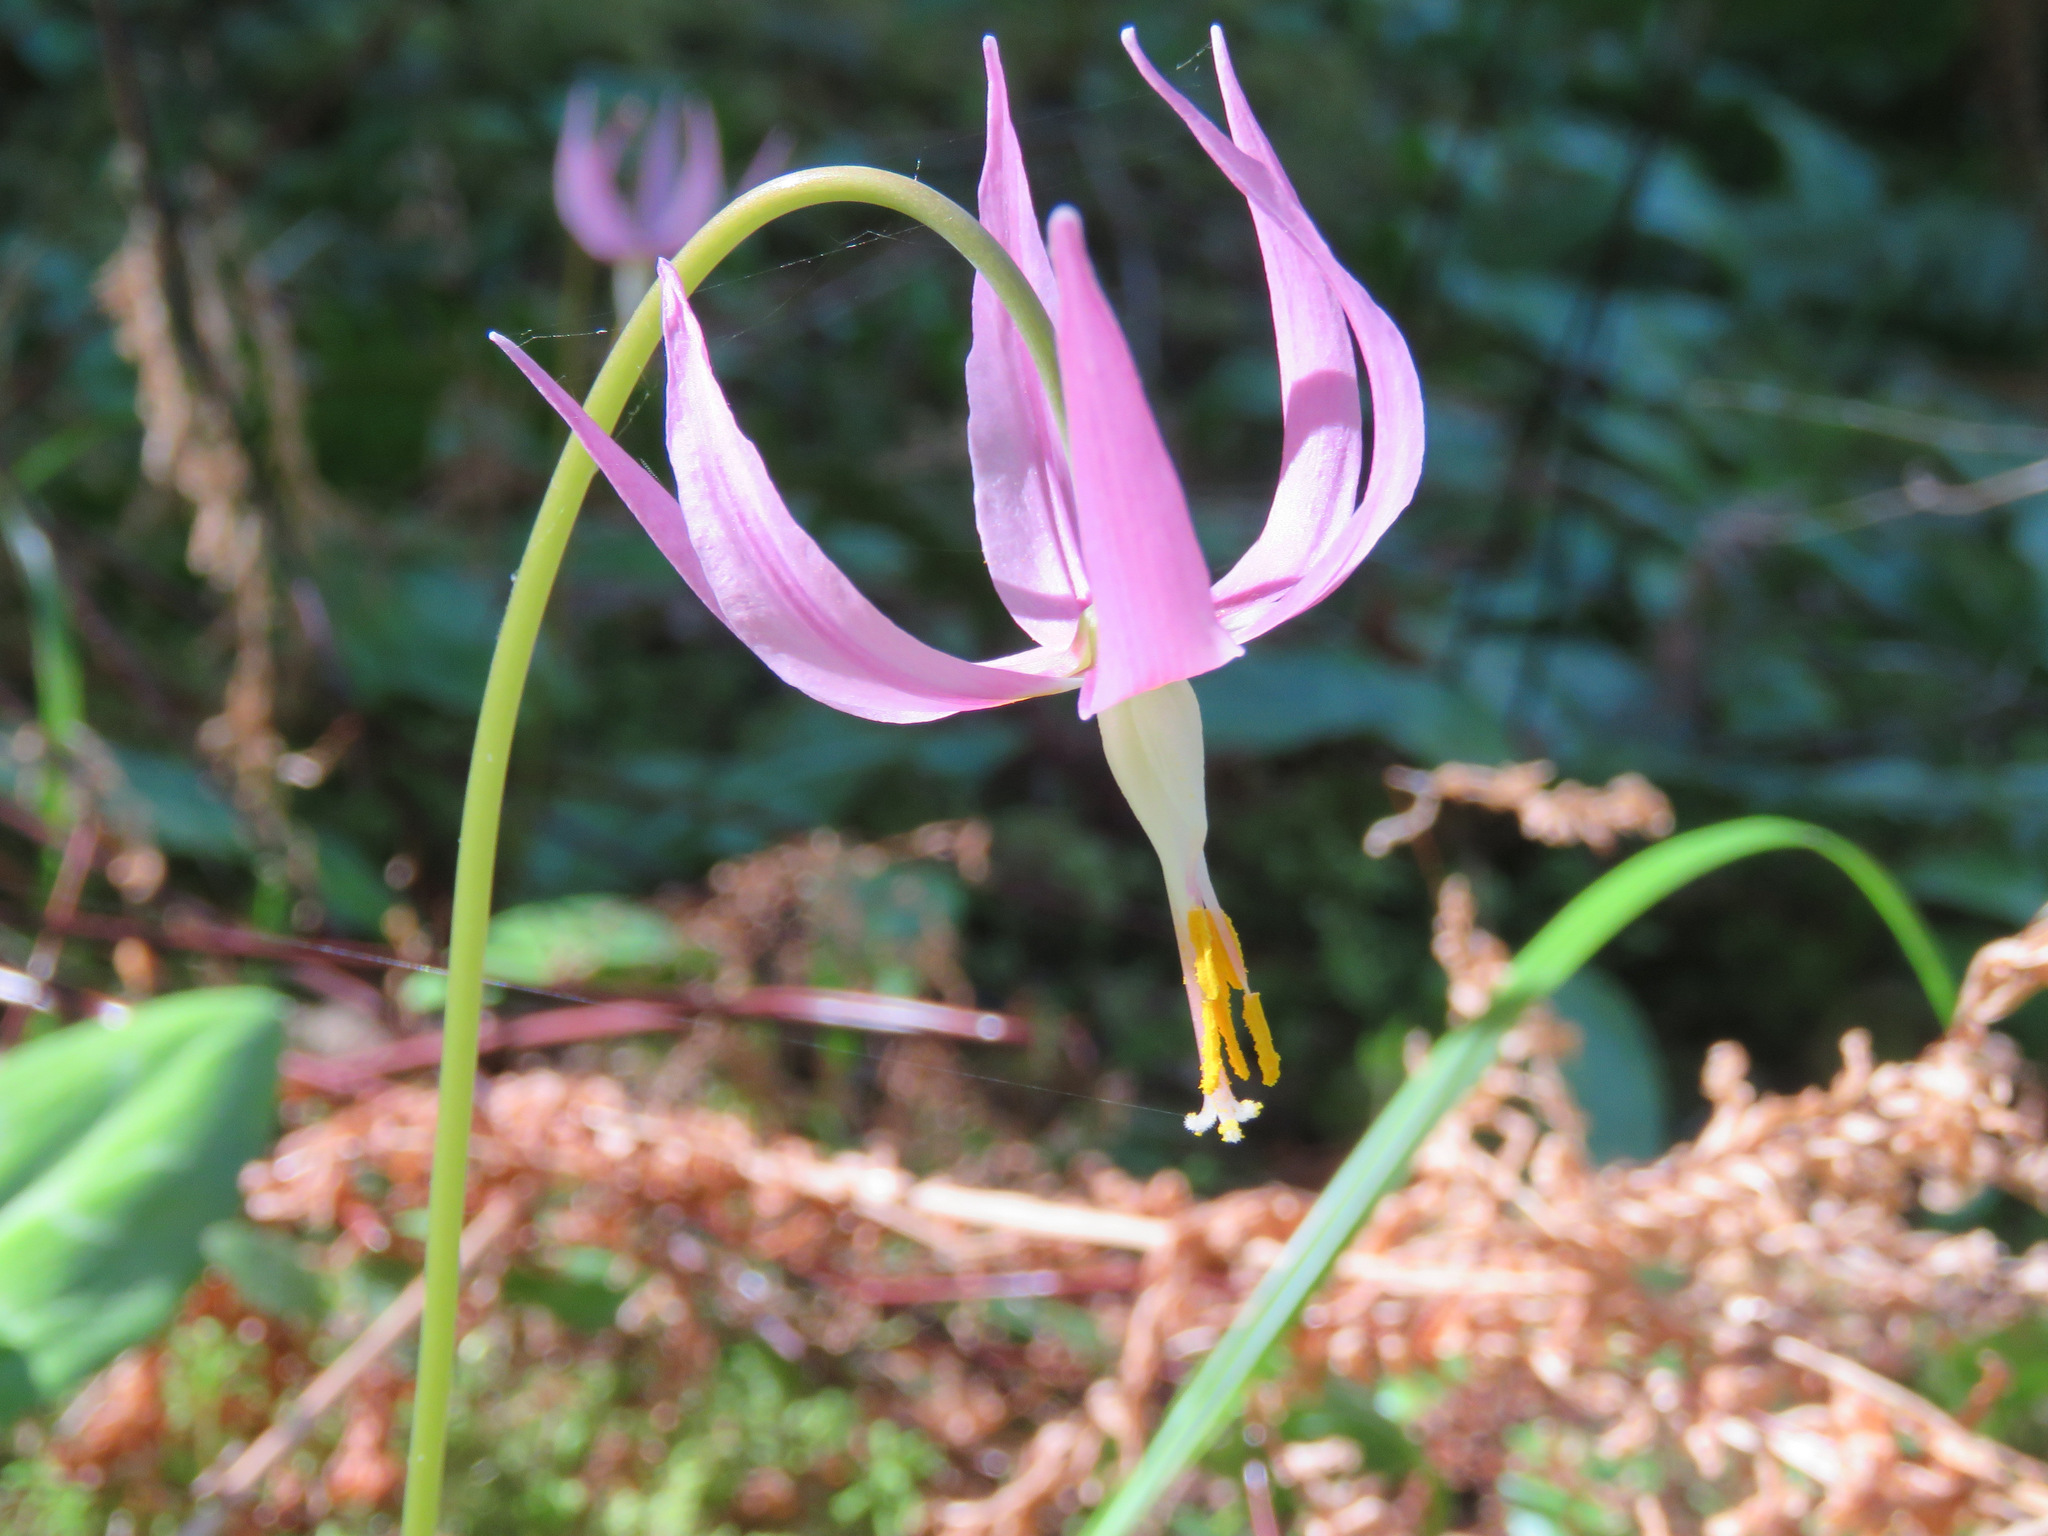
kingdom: Plantae
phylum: Tracheophyta
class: Liliopsida
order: Liliales
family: Liliaceae
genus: Erythronium
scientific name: Erythronium revolutum
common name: Pink fawn-lily
